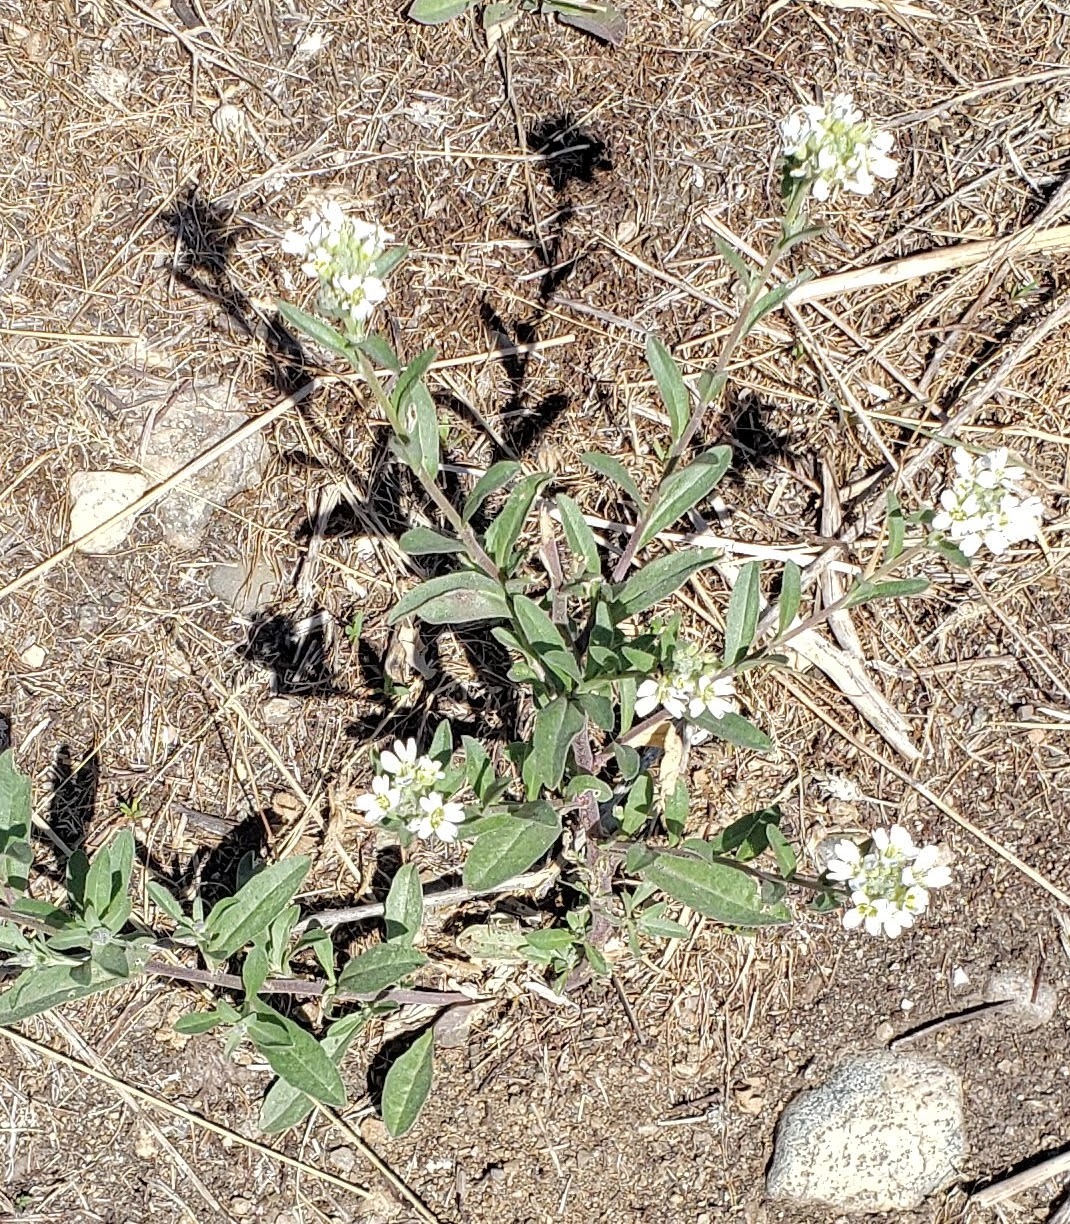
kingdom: Plantae
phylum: Tracheophyta
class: Magnoliopsida
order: Brassicales
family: Brassicaceae
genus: Berteroa
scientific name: Berteroa incana
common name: Hoary alison
